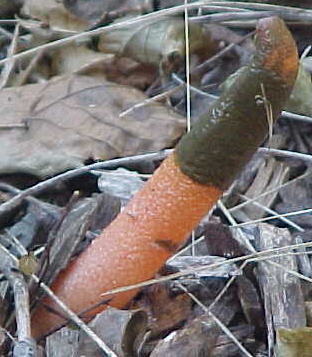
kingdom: Fungi
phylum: Basidiomycota
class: Agaricomycetes
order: Phallales
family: Phallaceae
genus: Mutinus
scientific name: Mutinus elegans
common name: Devil's dipstick
